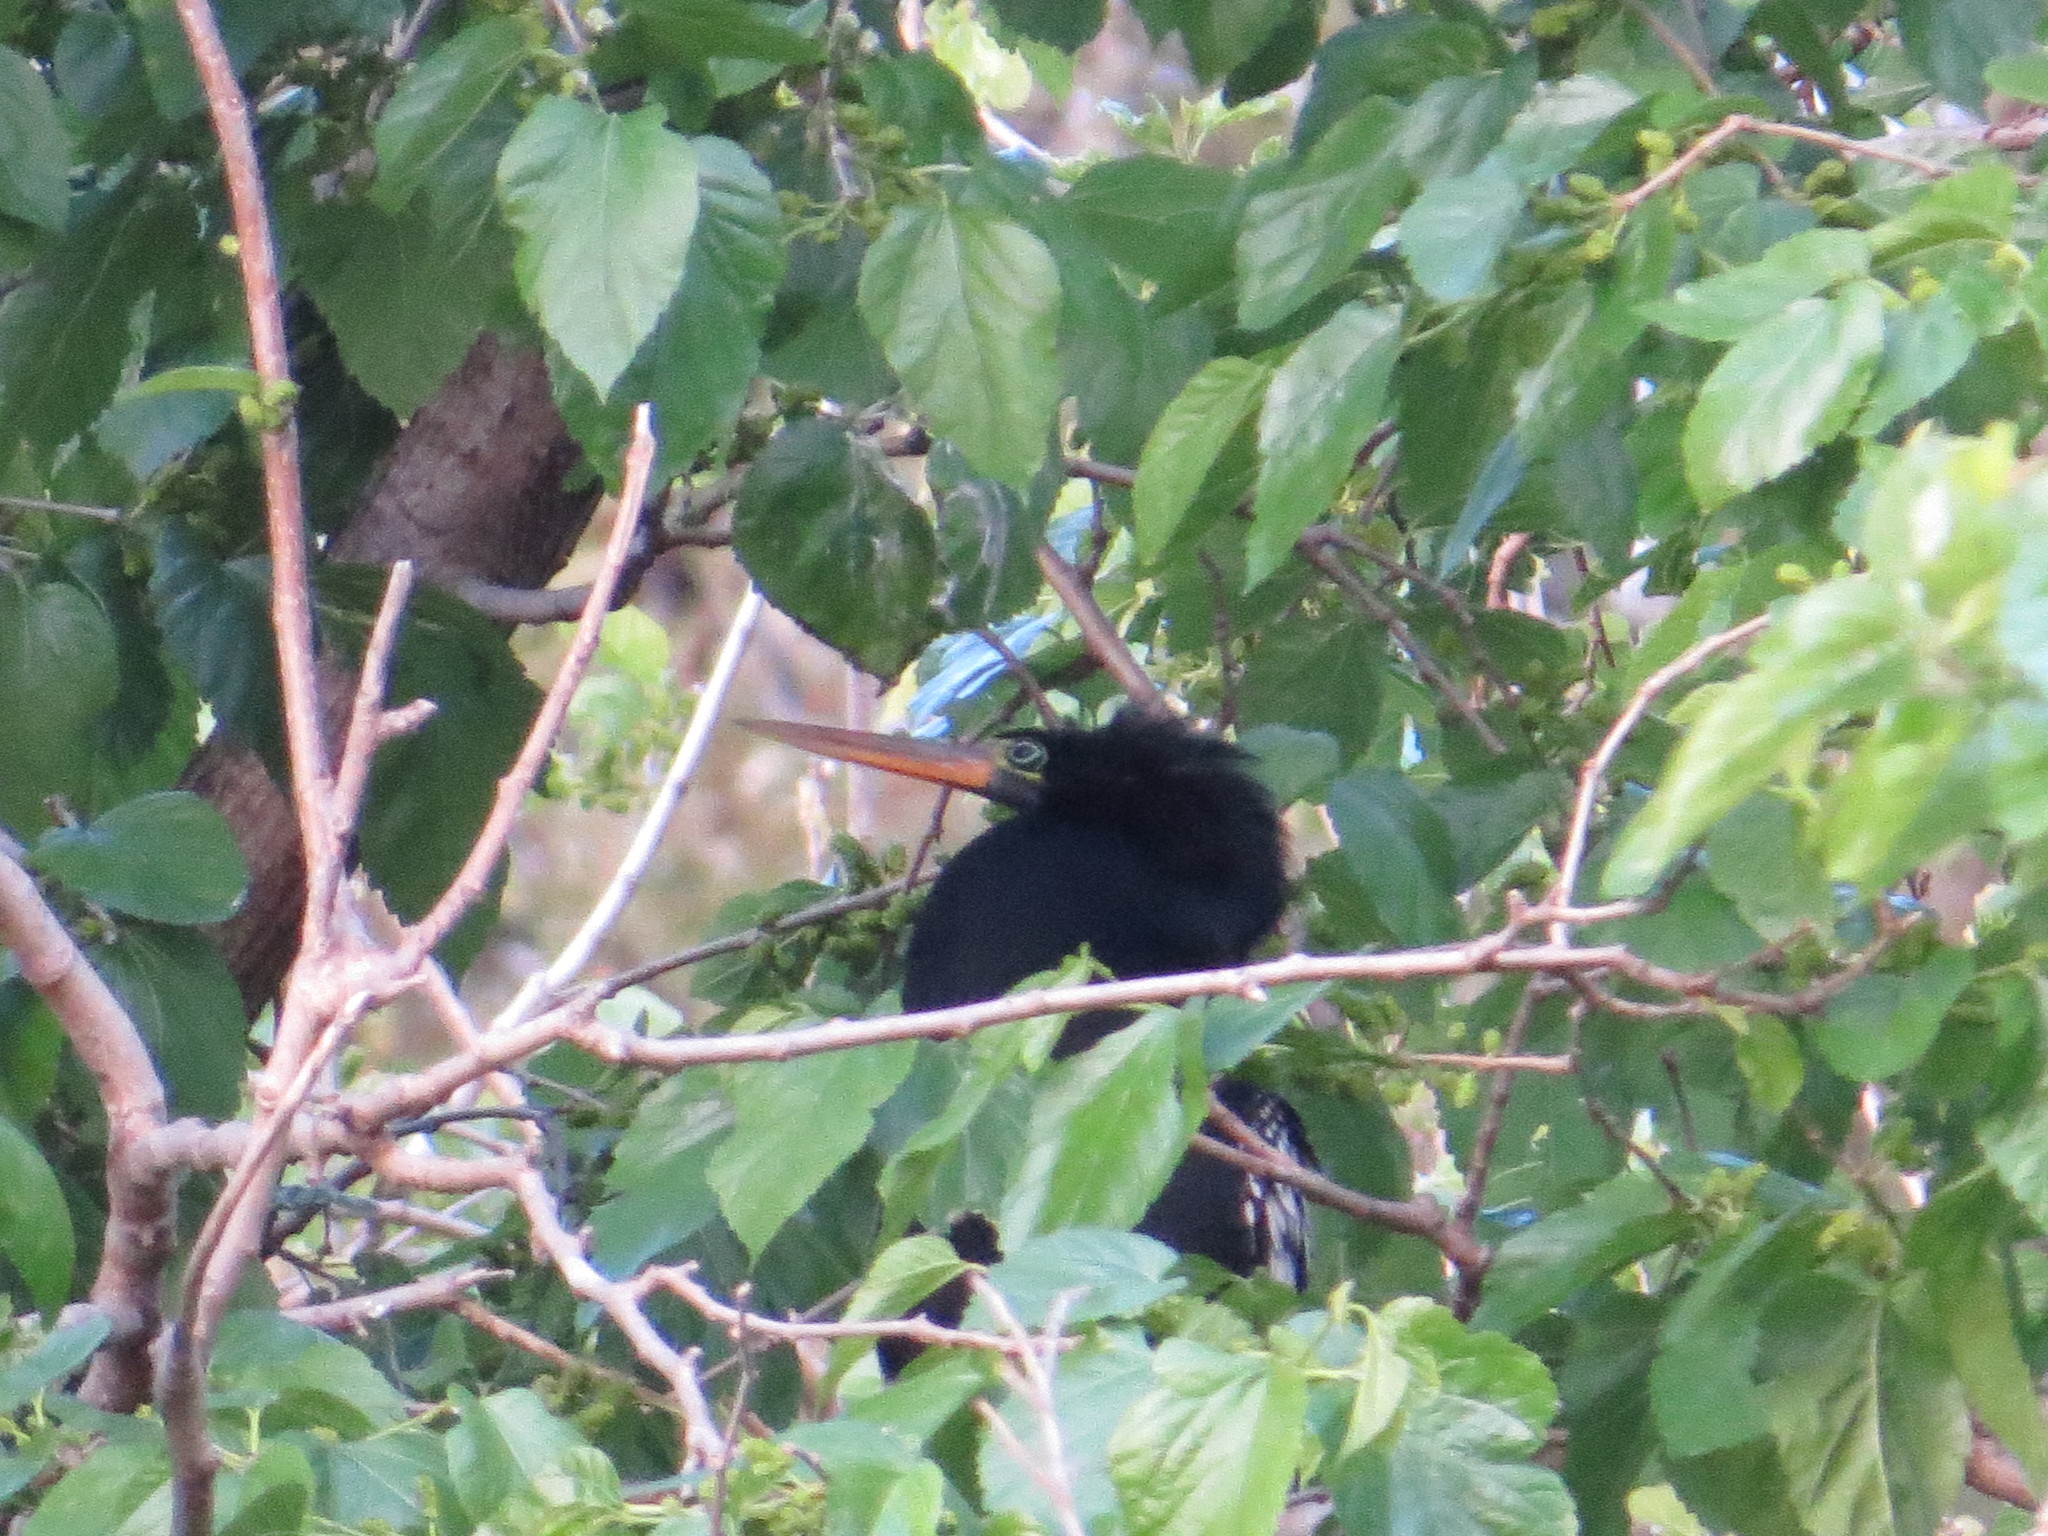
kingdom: Animalia
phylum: Chordata
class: Aves
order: Suliformes
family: Anhingidae
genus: Anhinga
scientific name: Anhinga anhinga
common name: Anhinga
